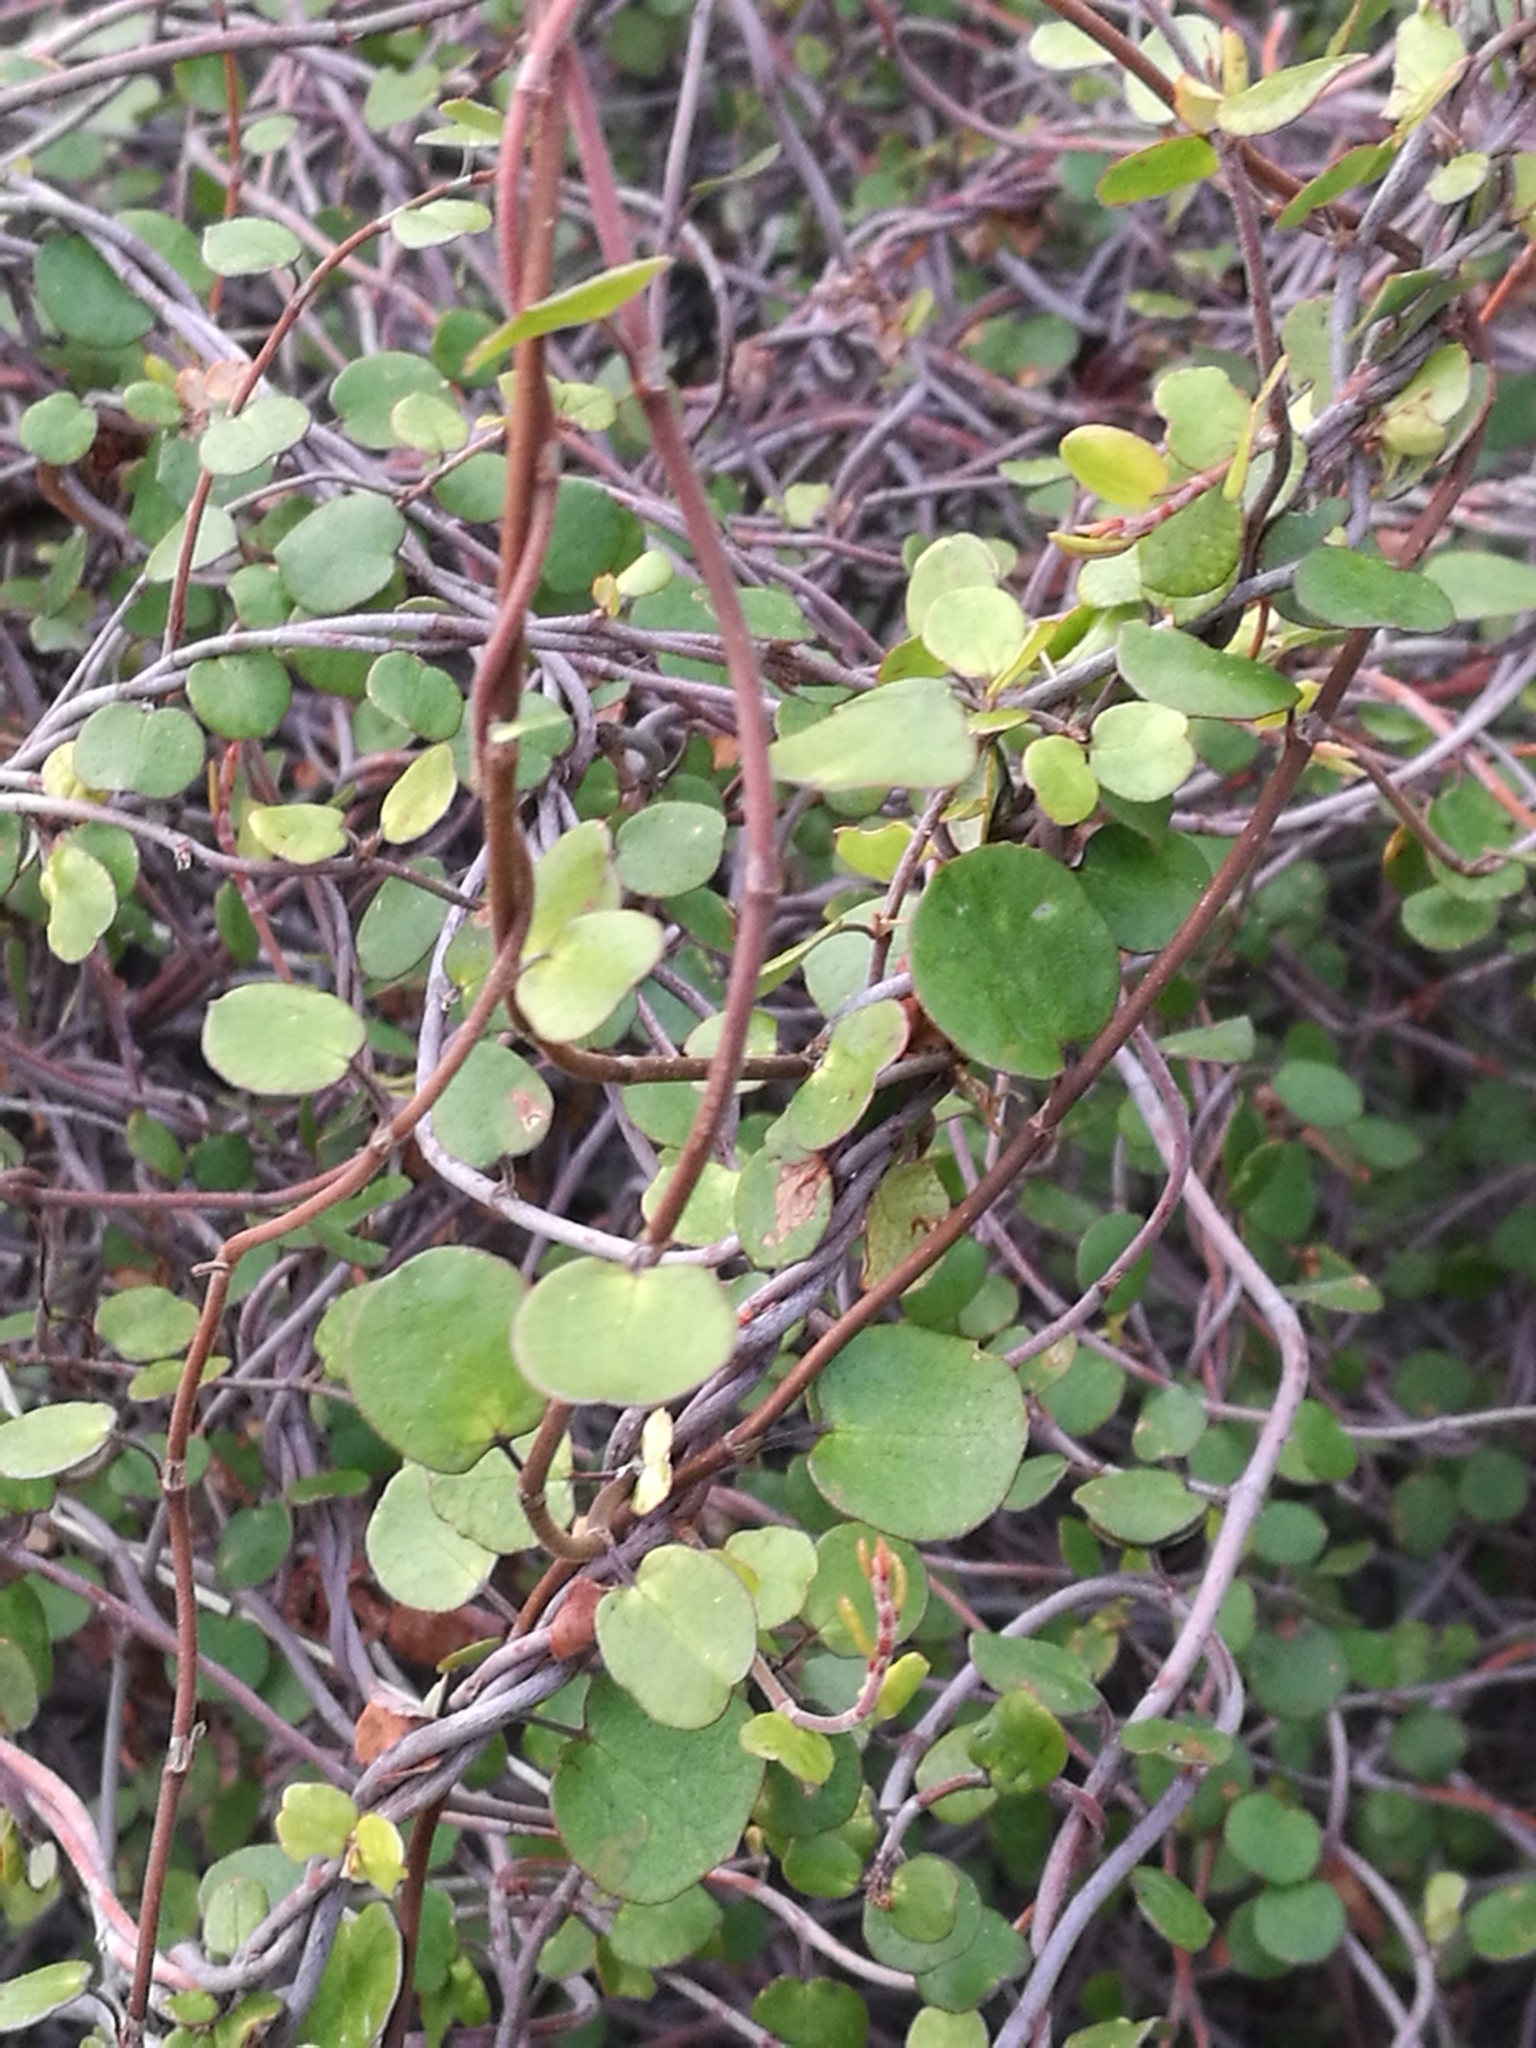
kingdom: Plantae
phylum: Tracheophyta
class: Magnoliopsida
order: Caryophyllales
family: Polygonaceae
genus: Muehlenbeckia
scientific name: Muehlenbeckia complexa
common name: Wireplant
